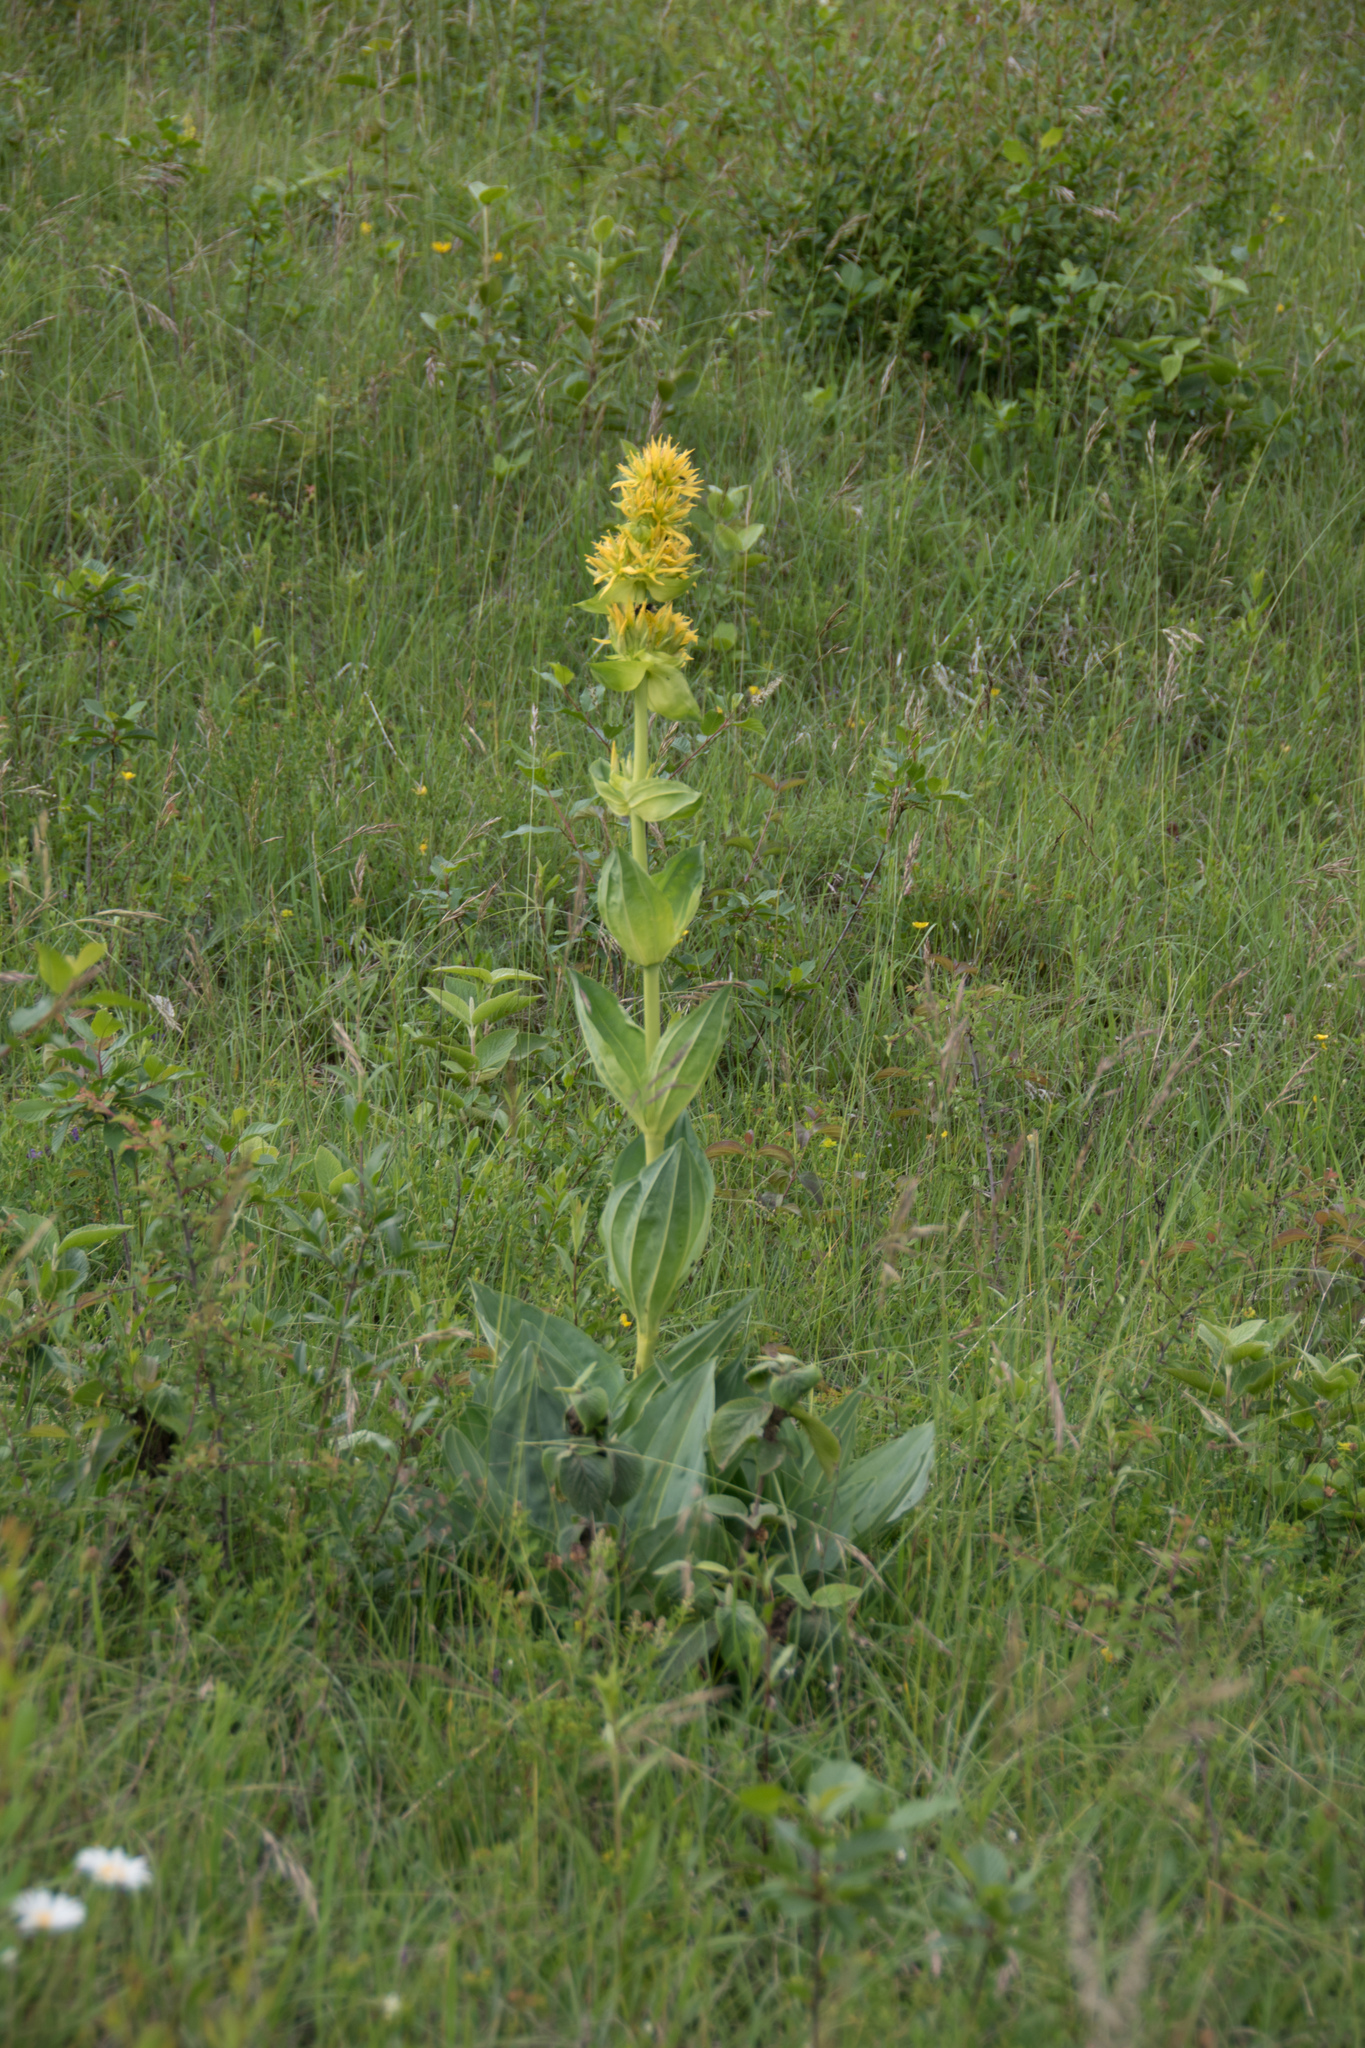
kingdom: Plantae
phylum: Tracheophyta
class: Magnoliopsida
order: Gentianales
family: Gentianaceae
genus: Gentiana
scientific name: Gentiana lutea
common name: Great yellow gentian
